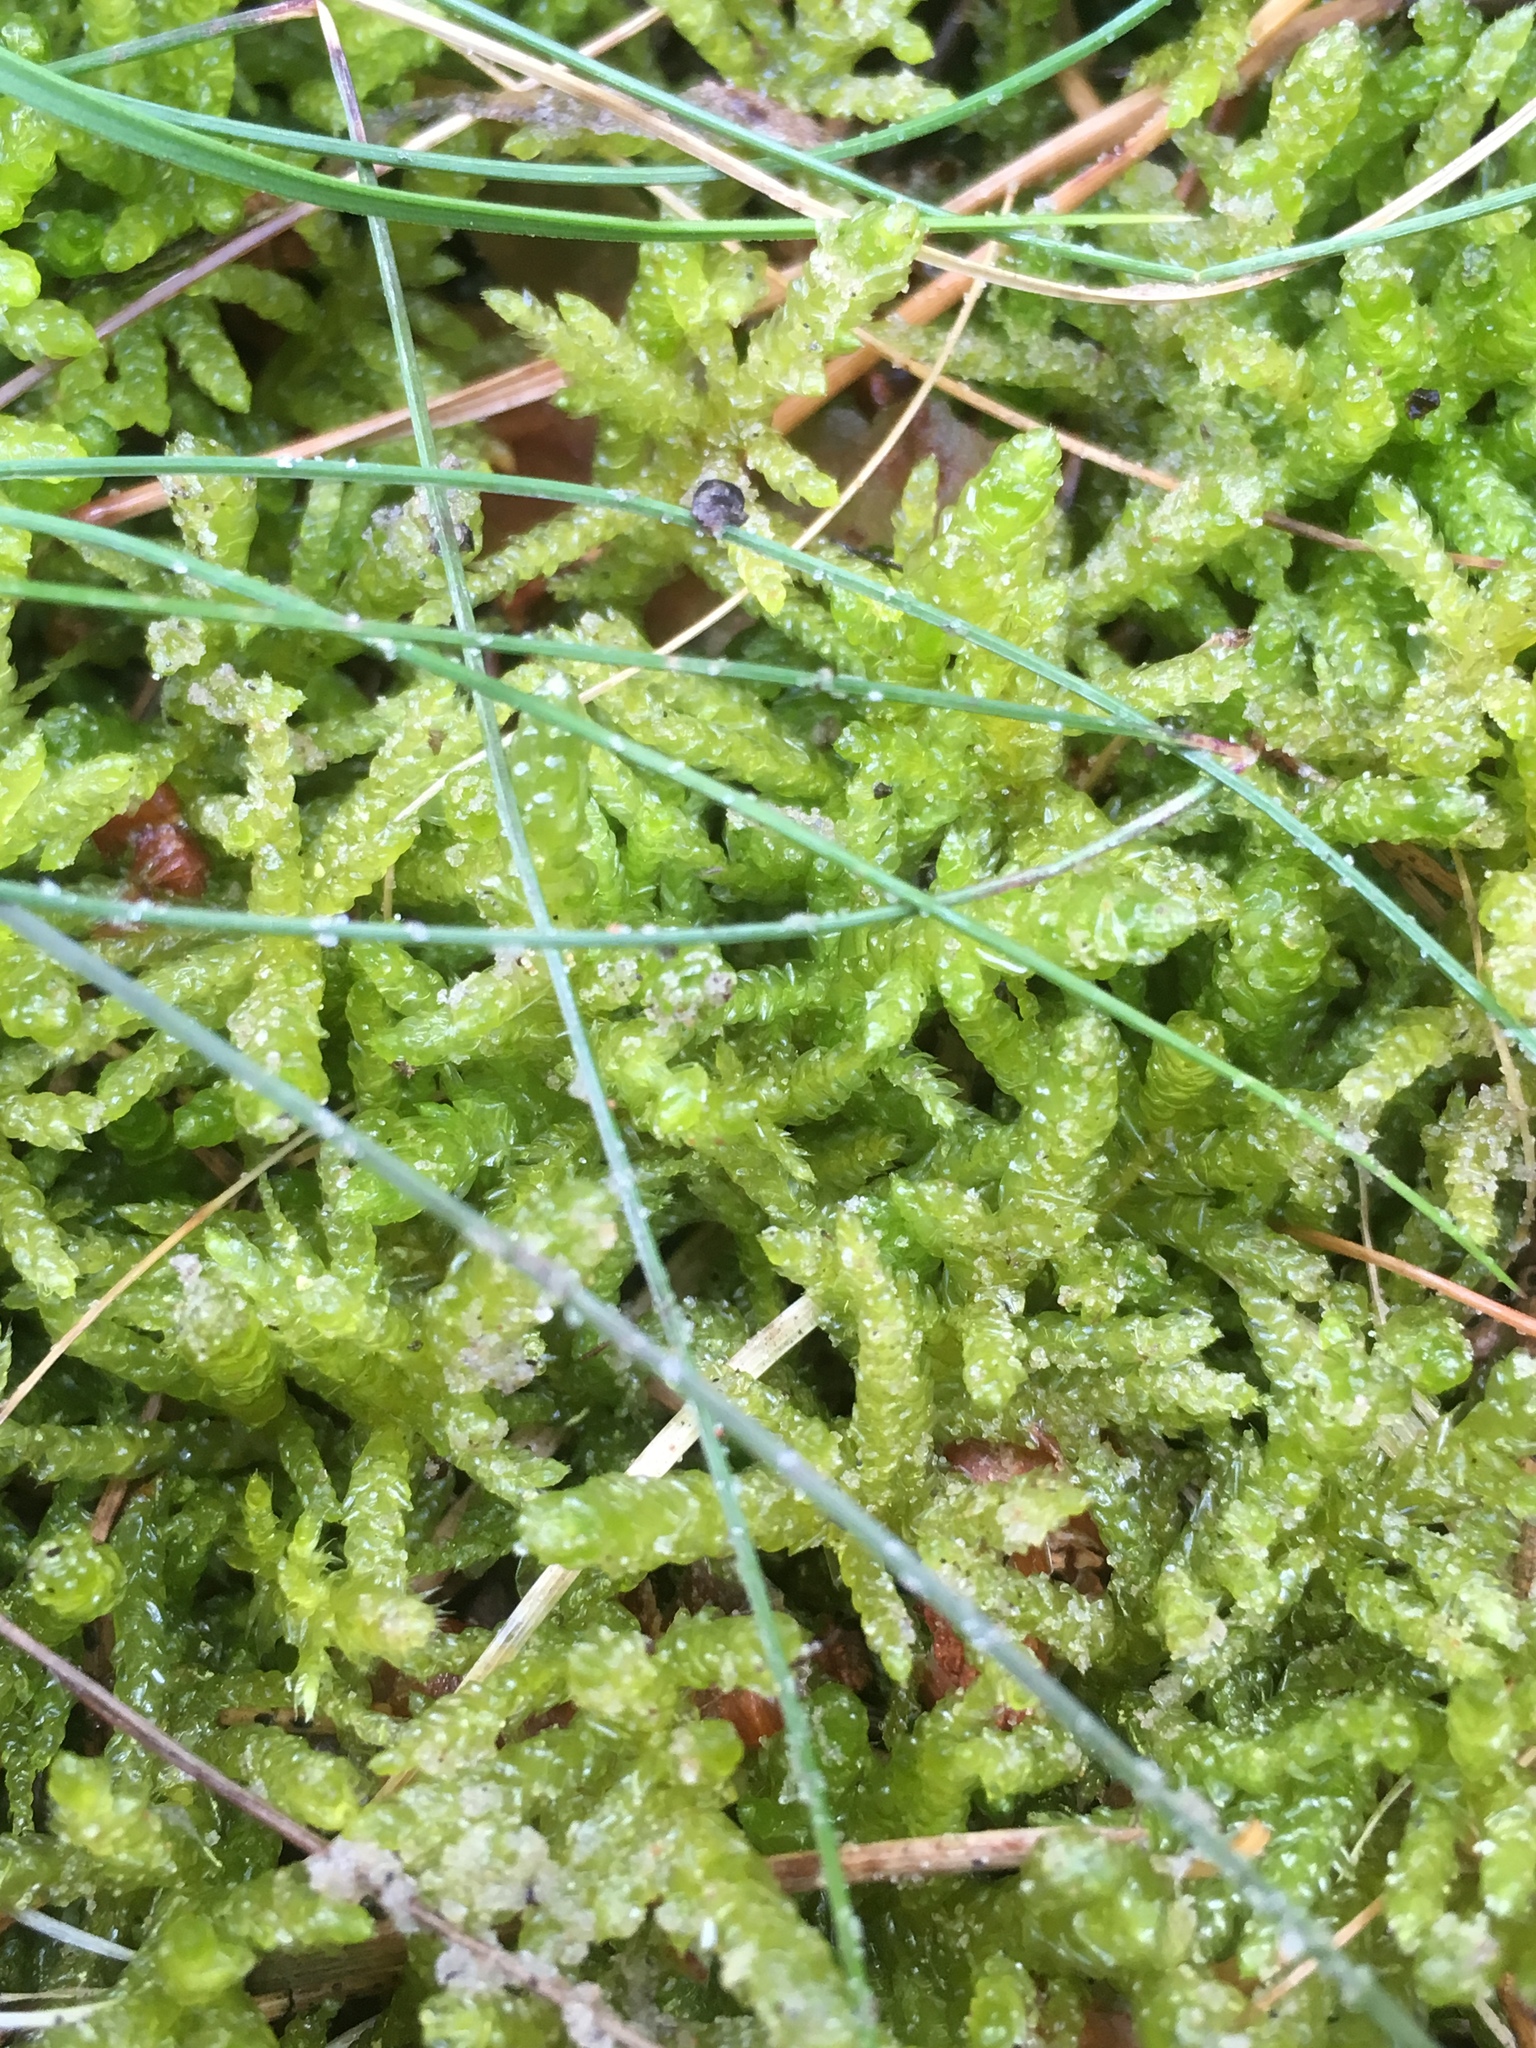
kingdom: Plantae
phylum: Bryophyta
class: Bryopsida
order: Hypnales
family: Brachytheciaceae
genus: Pseudoscleropodium
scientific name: Pseudoscleropodium purum
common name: Neat feather-moss
